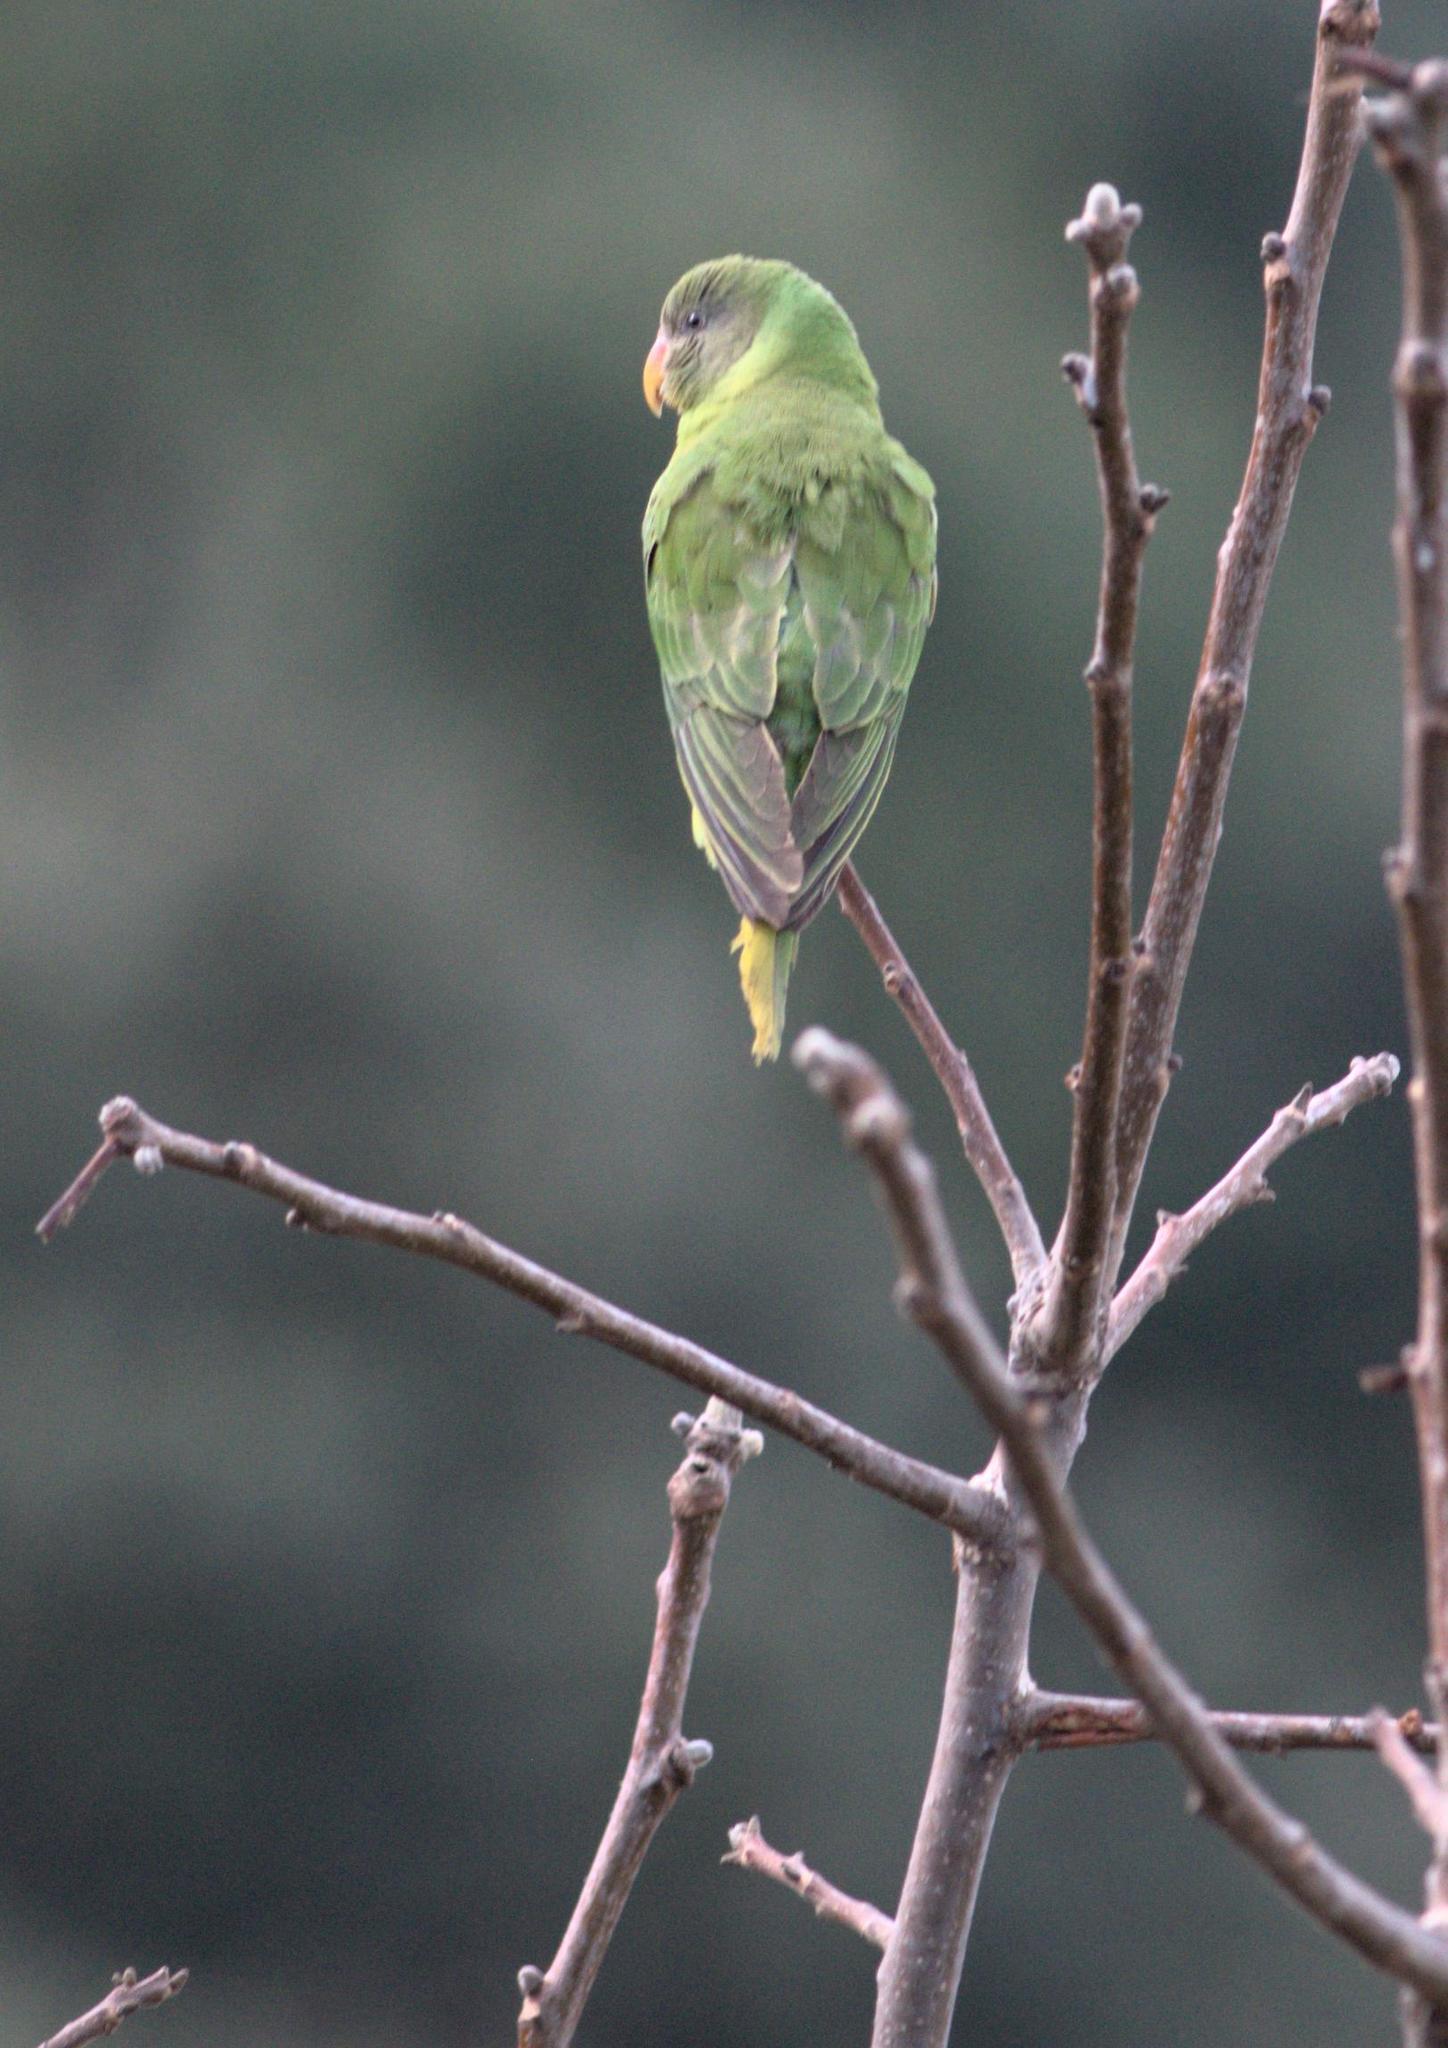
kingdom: Animalia
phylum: Chordata
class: Aves
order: Psittaciformes
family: Psittacidae
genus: Psittacula
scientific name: Psittacula himalayana
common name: Slaty-headed parakeet
